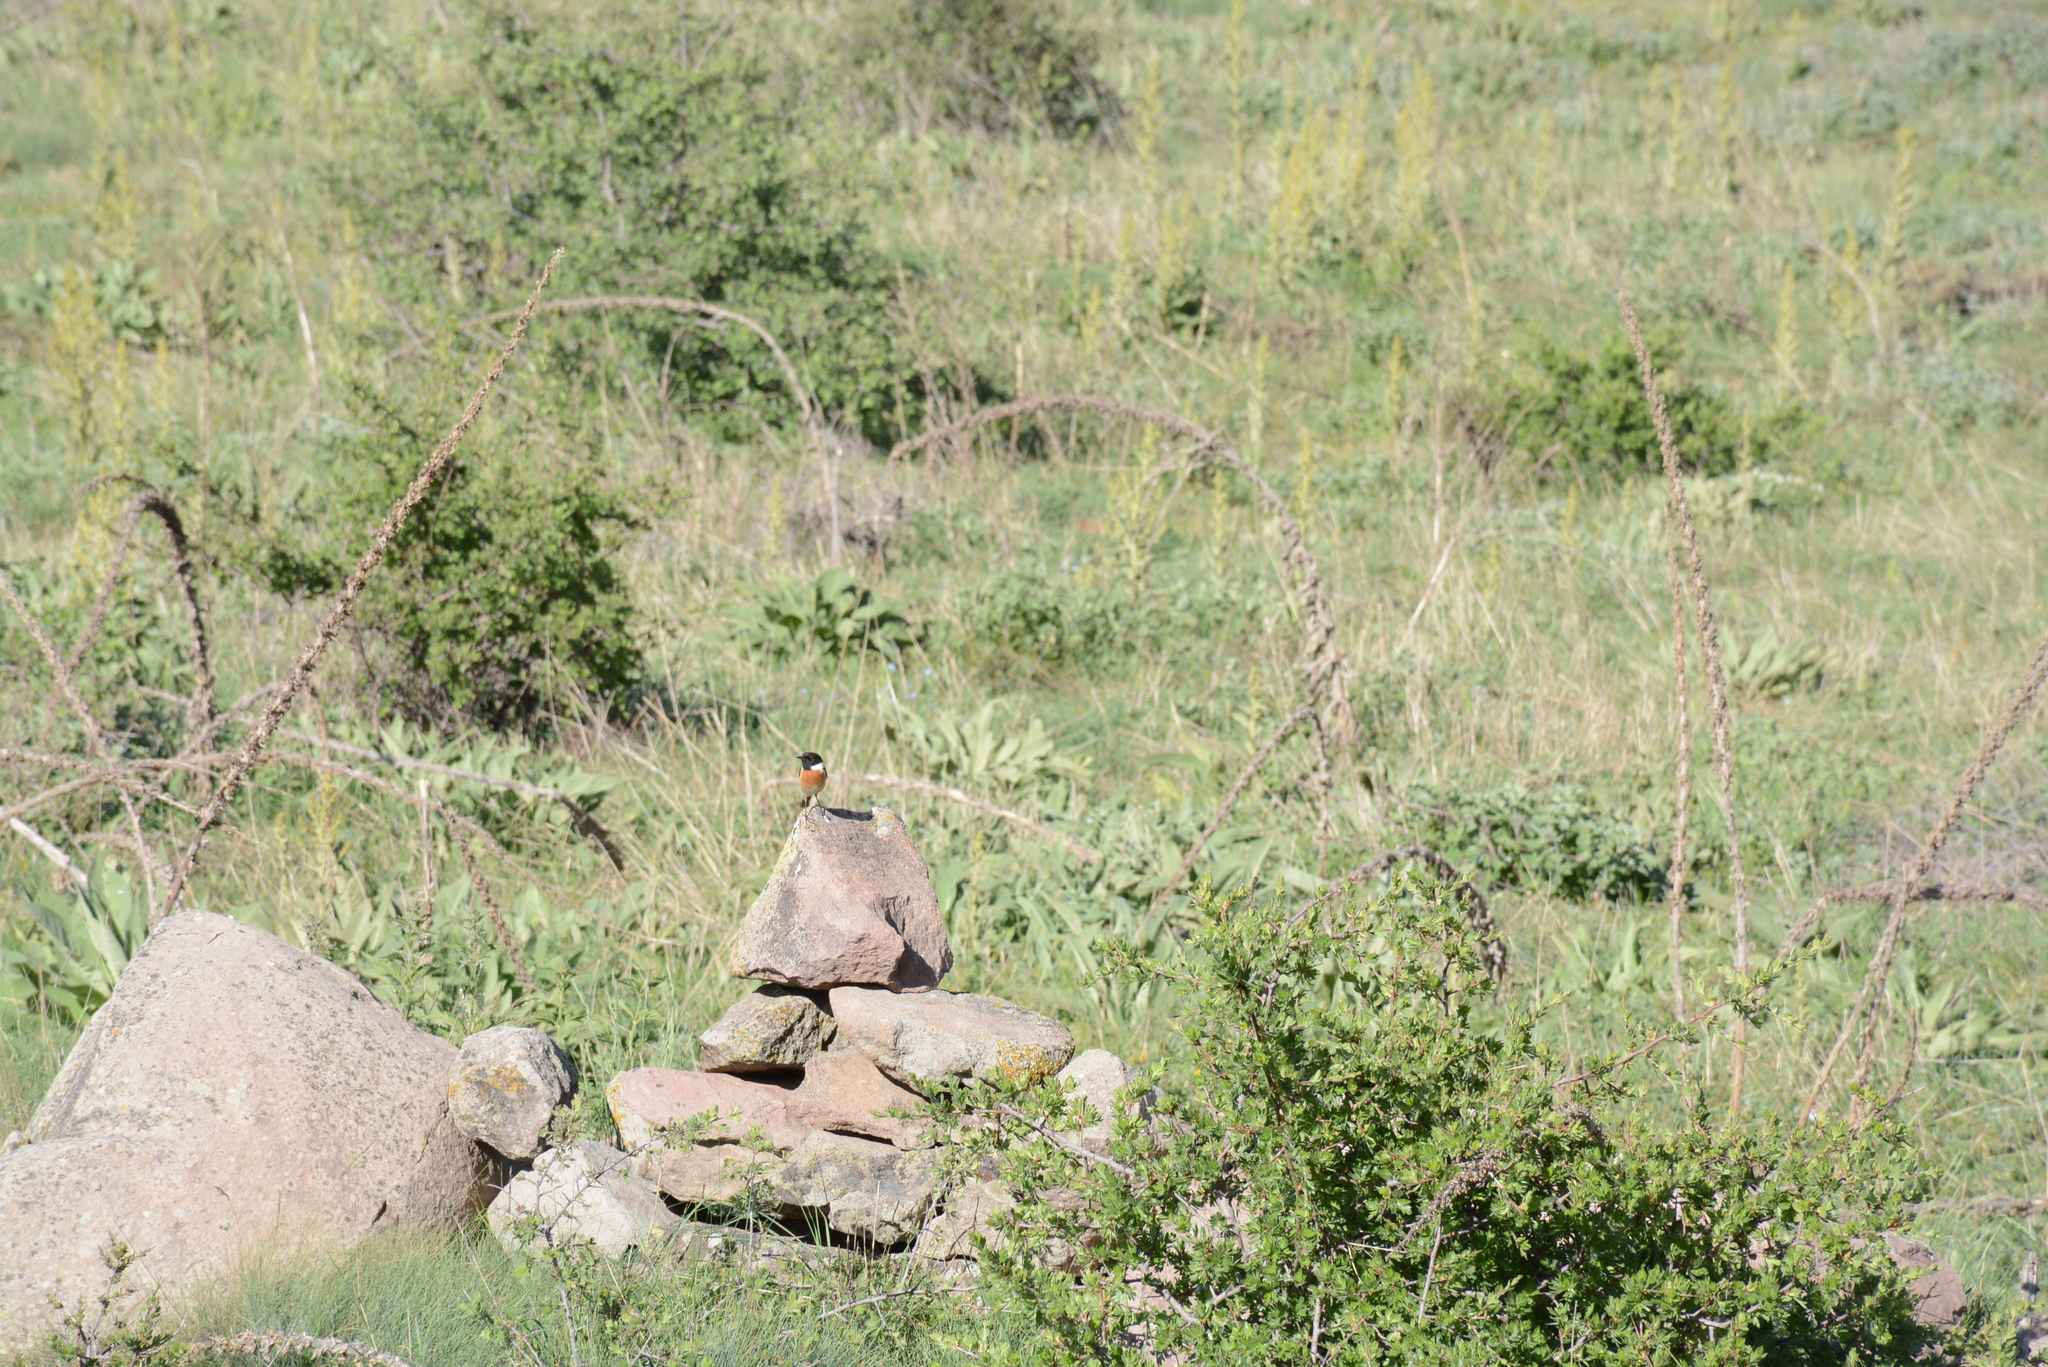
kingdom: Animalia
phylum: Chordata
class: Aves
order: Passeriformes
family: Muscicapidae
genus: Saxicola
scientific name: Saxicola rubicola
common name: European stonechat
